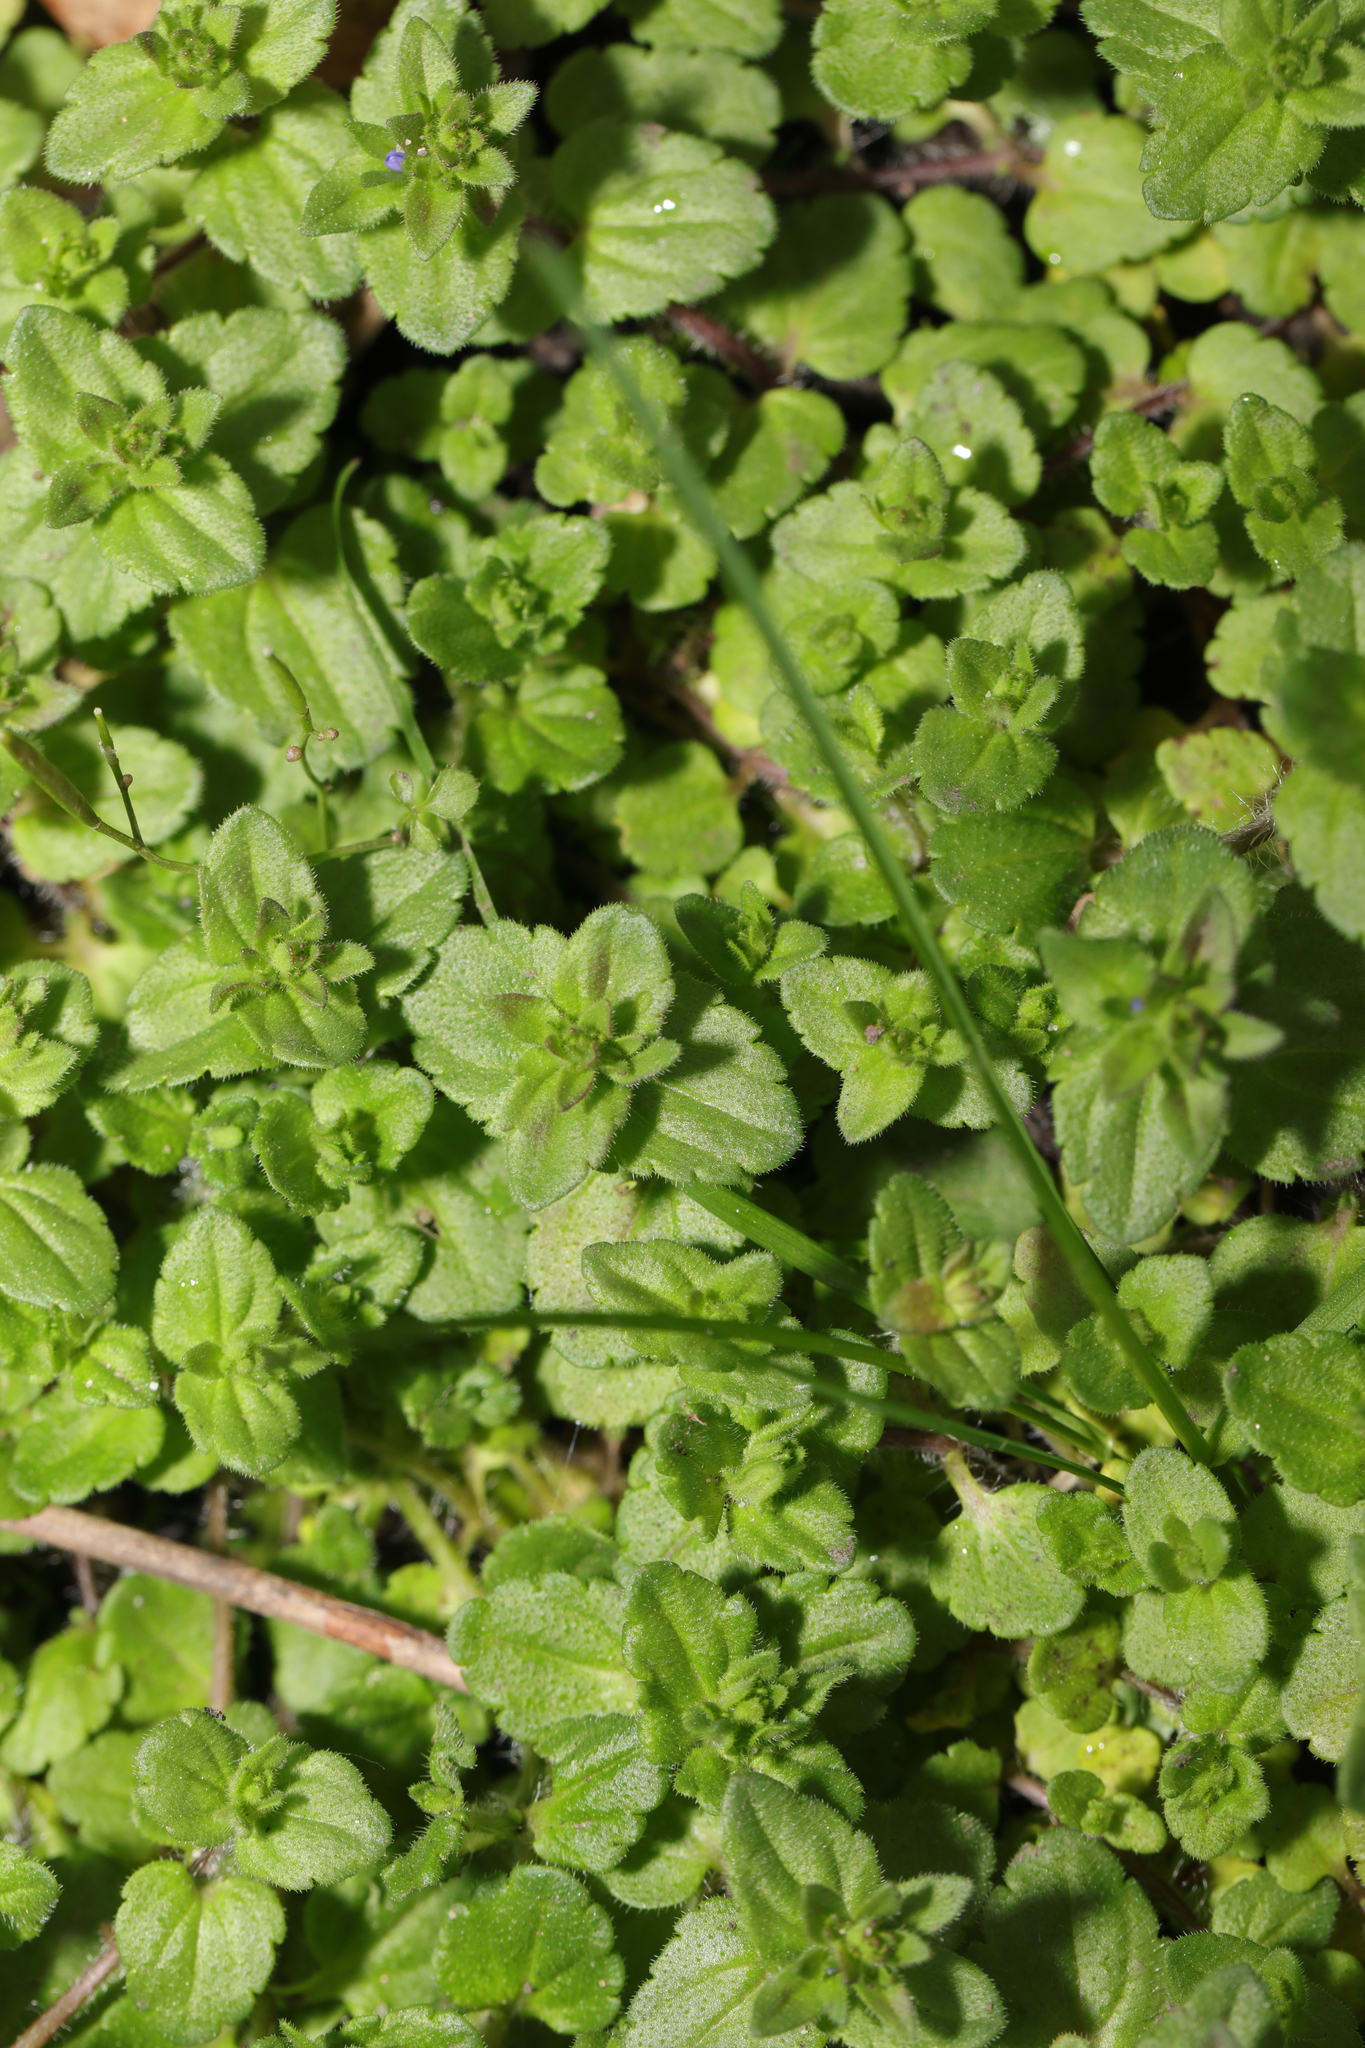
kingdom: Plantae
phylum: Tracheophyta
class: Magnoliopsida
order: Lamiales
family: Plantaginaceae
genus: Veronica
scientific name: Veronica arvensis
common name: Corn speedwell
